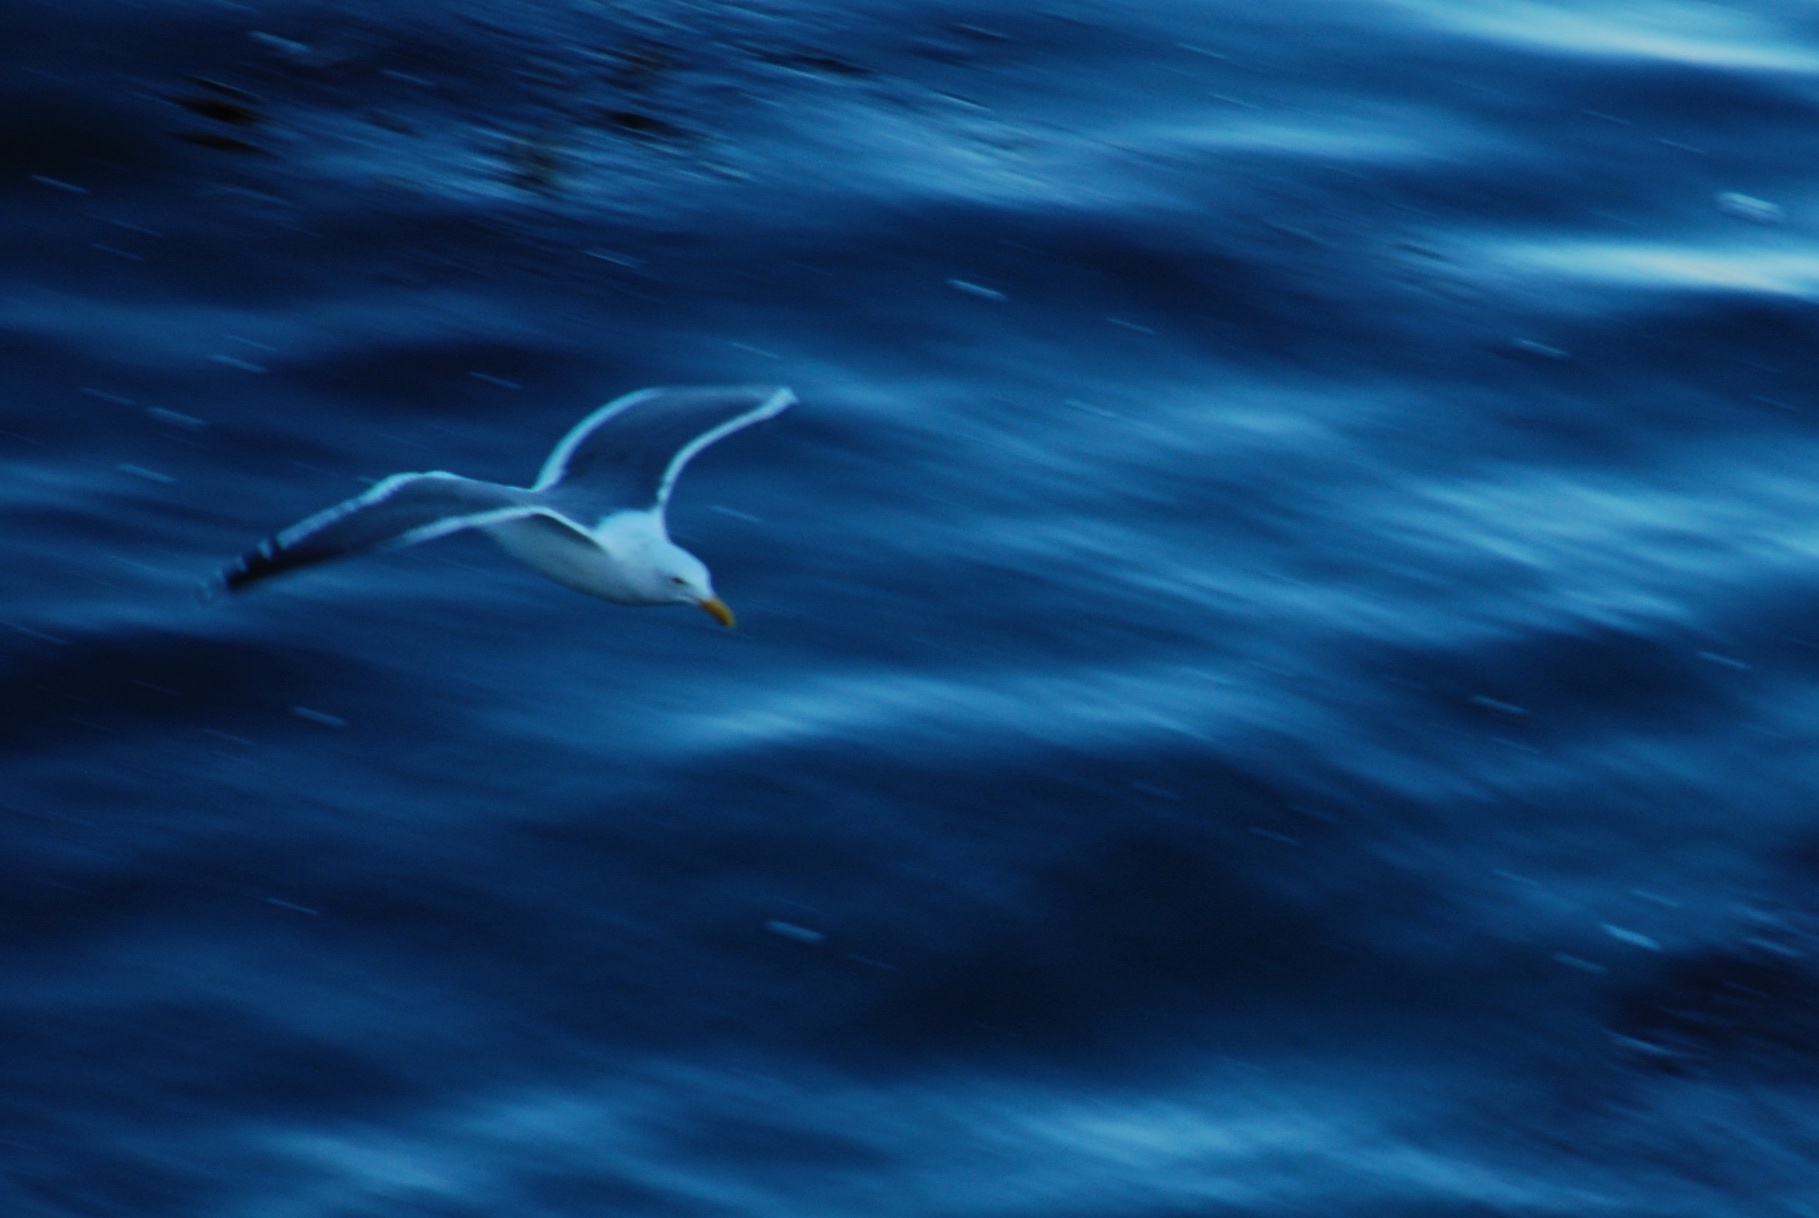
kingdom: Animalia
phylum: Chordata
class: Aves
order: Charadriiformes
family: Laridae
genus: Larus
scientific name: Larus occidentalis
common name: Western gull
